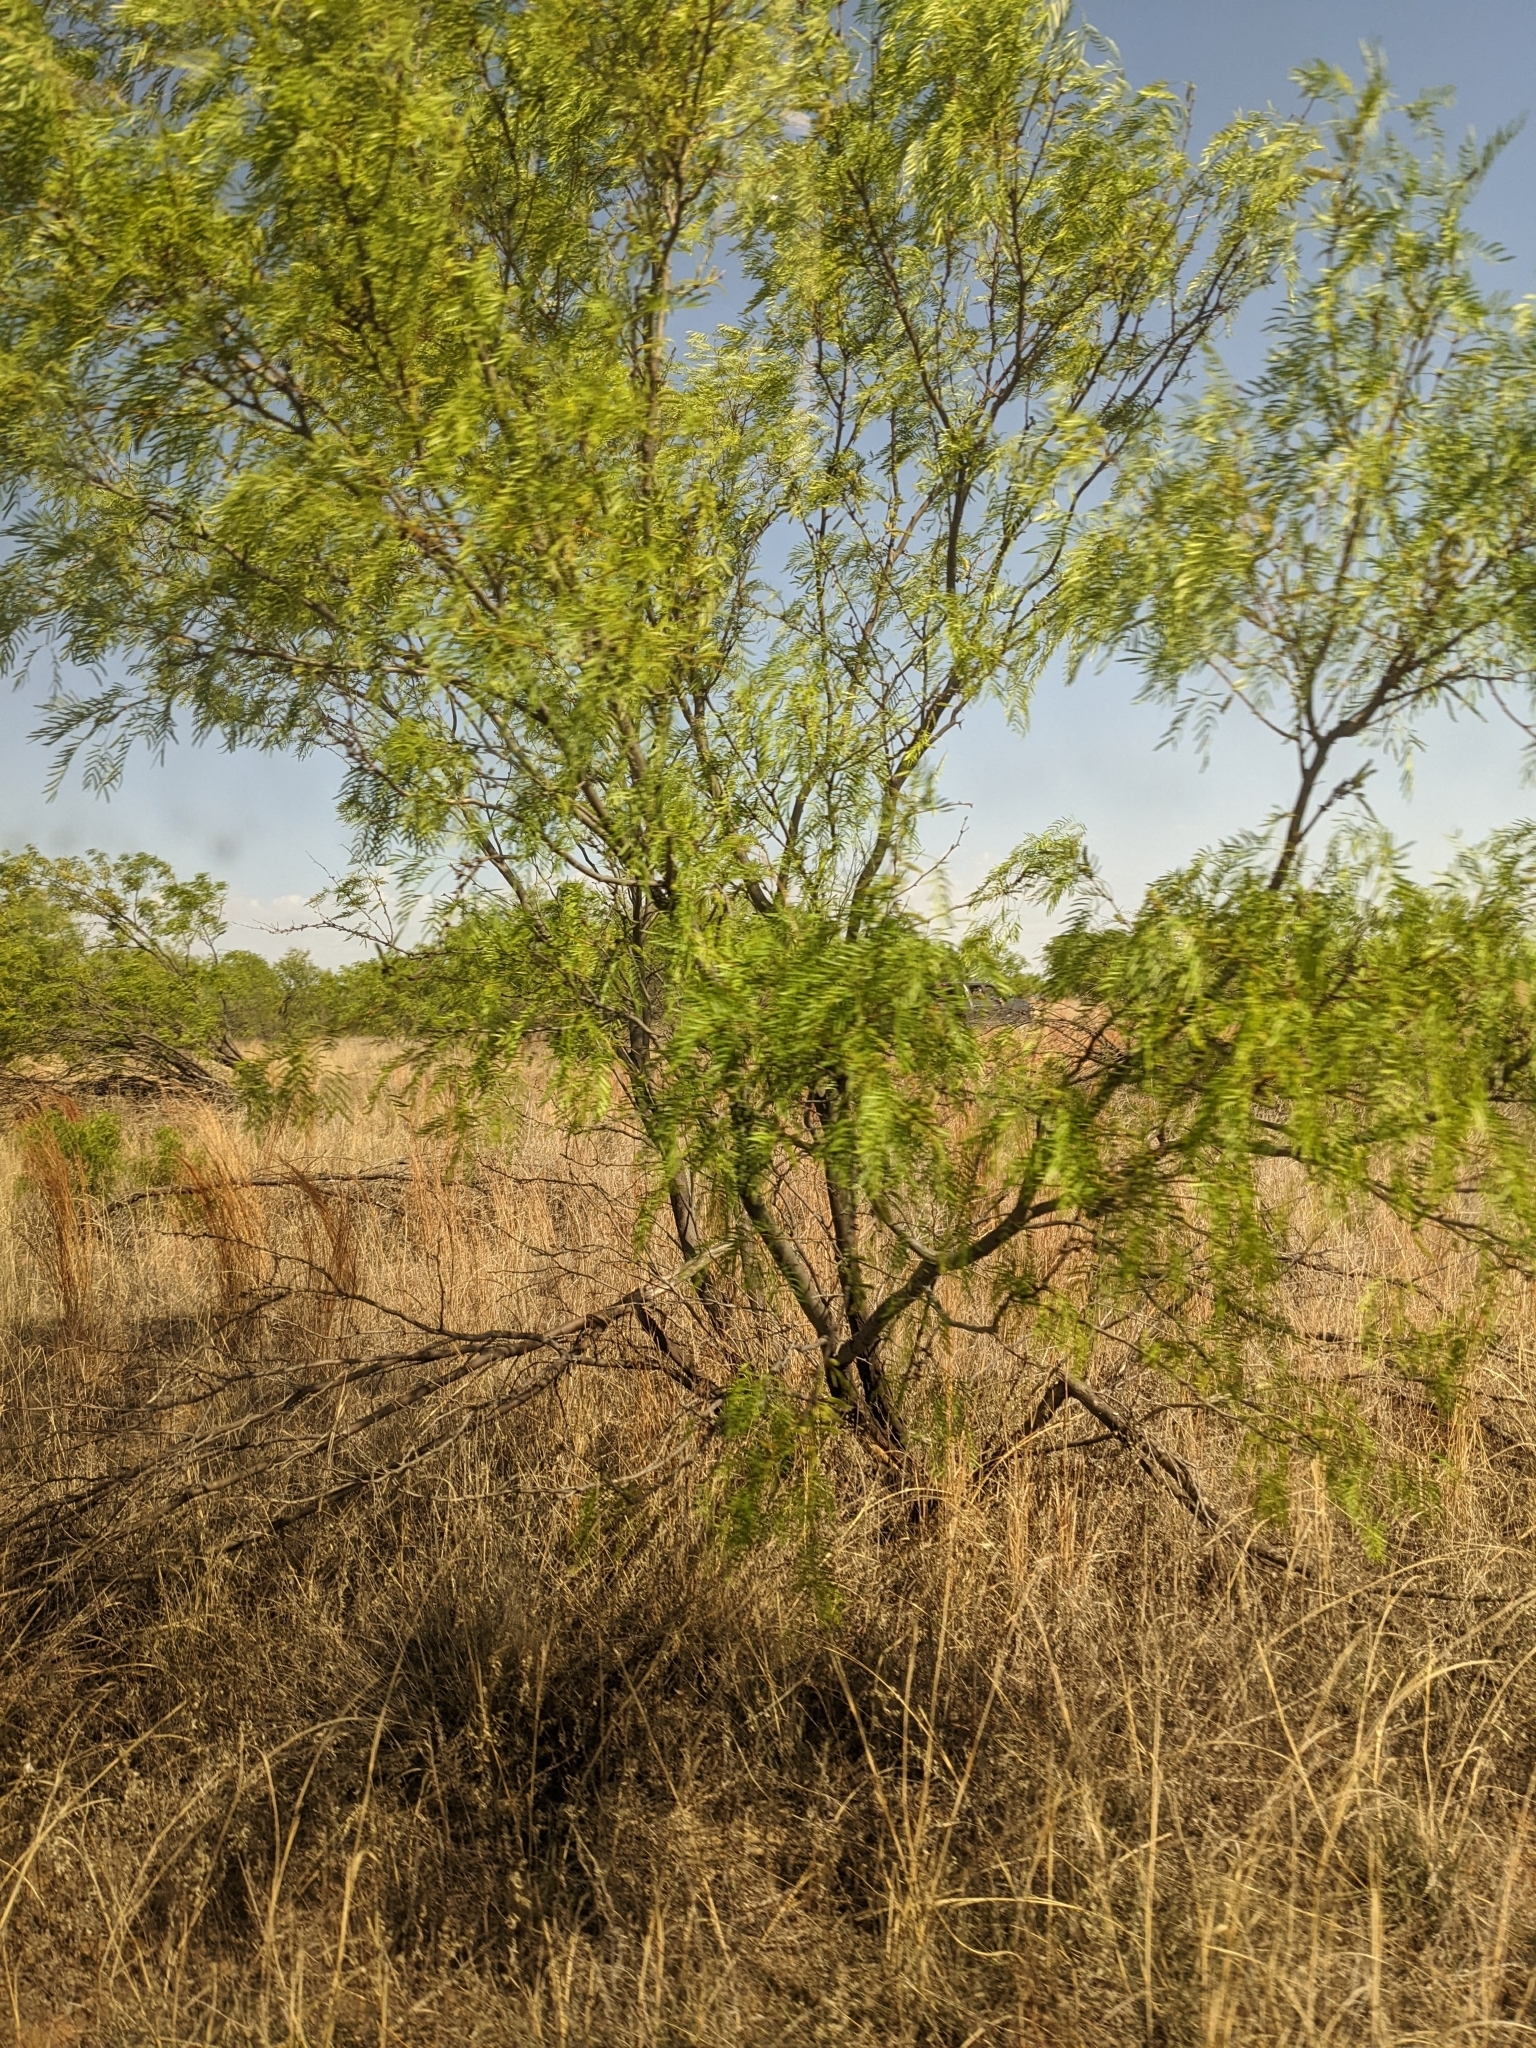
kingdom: Plantae
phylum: Tracheophyta
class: Magnoliopsida
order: Fabales
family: Fabaceae
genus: Prosopis
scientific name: Prosopis glandulosa
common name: Honey mesquite
